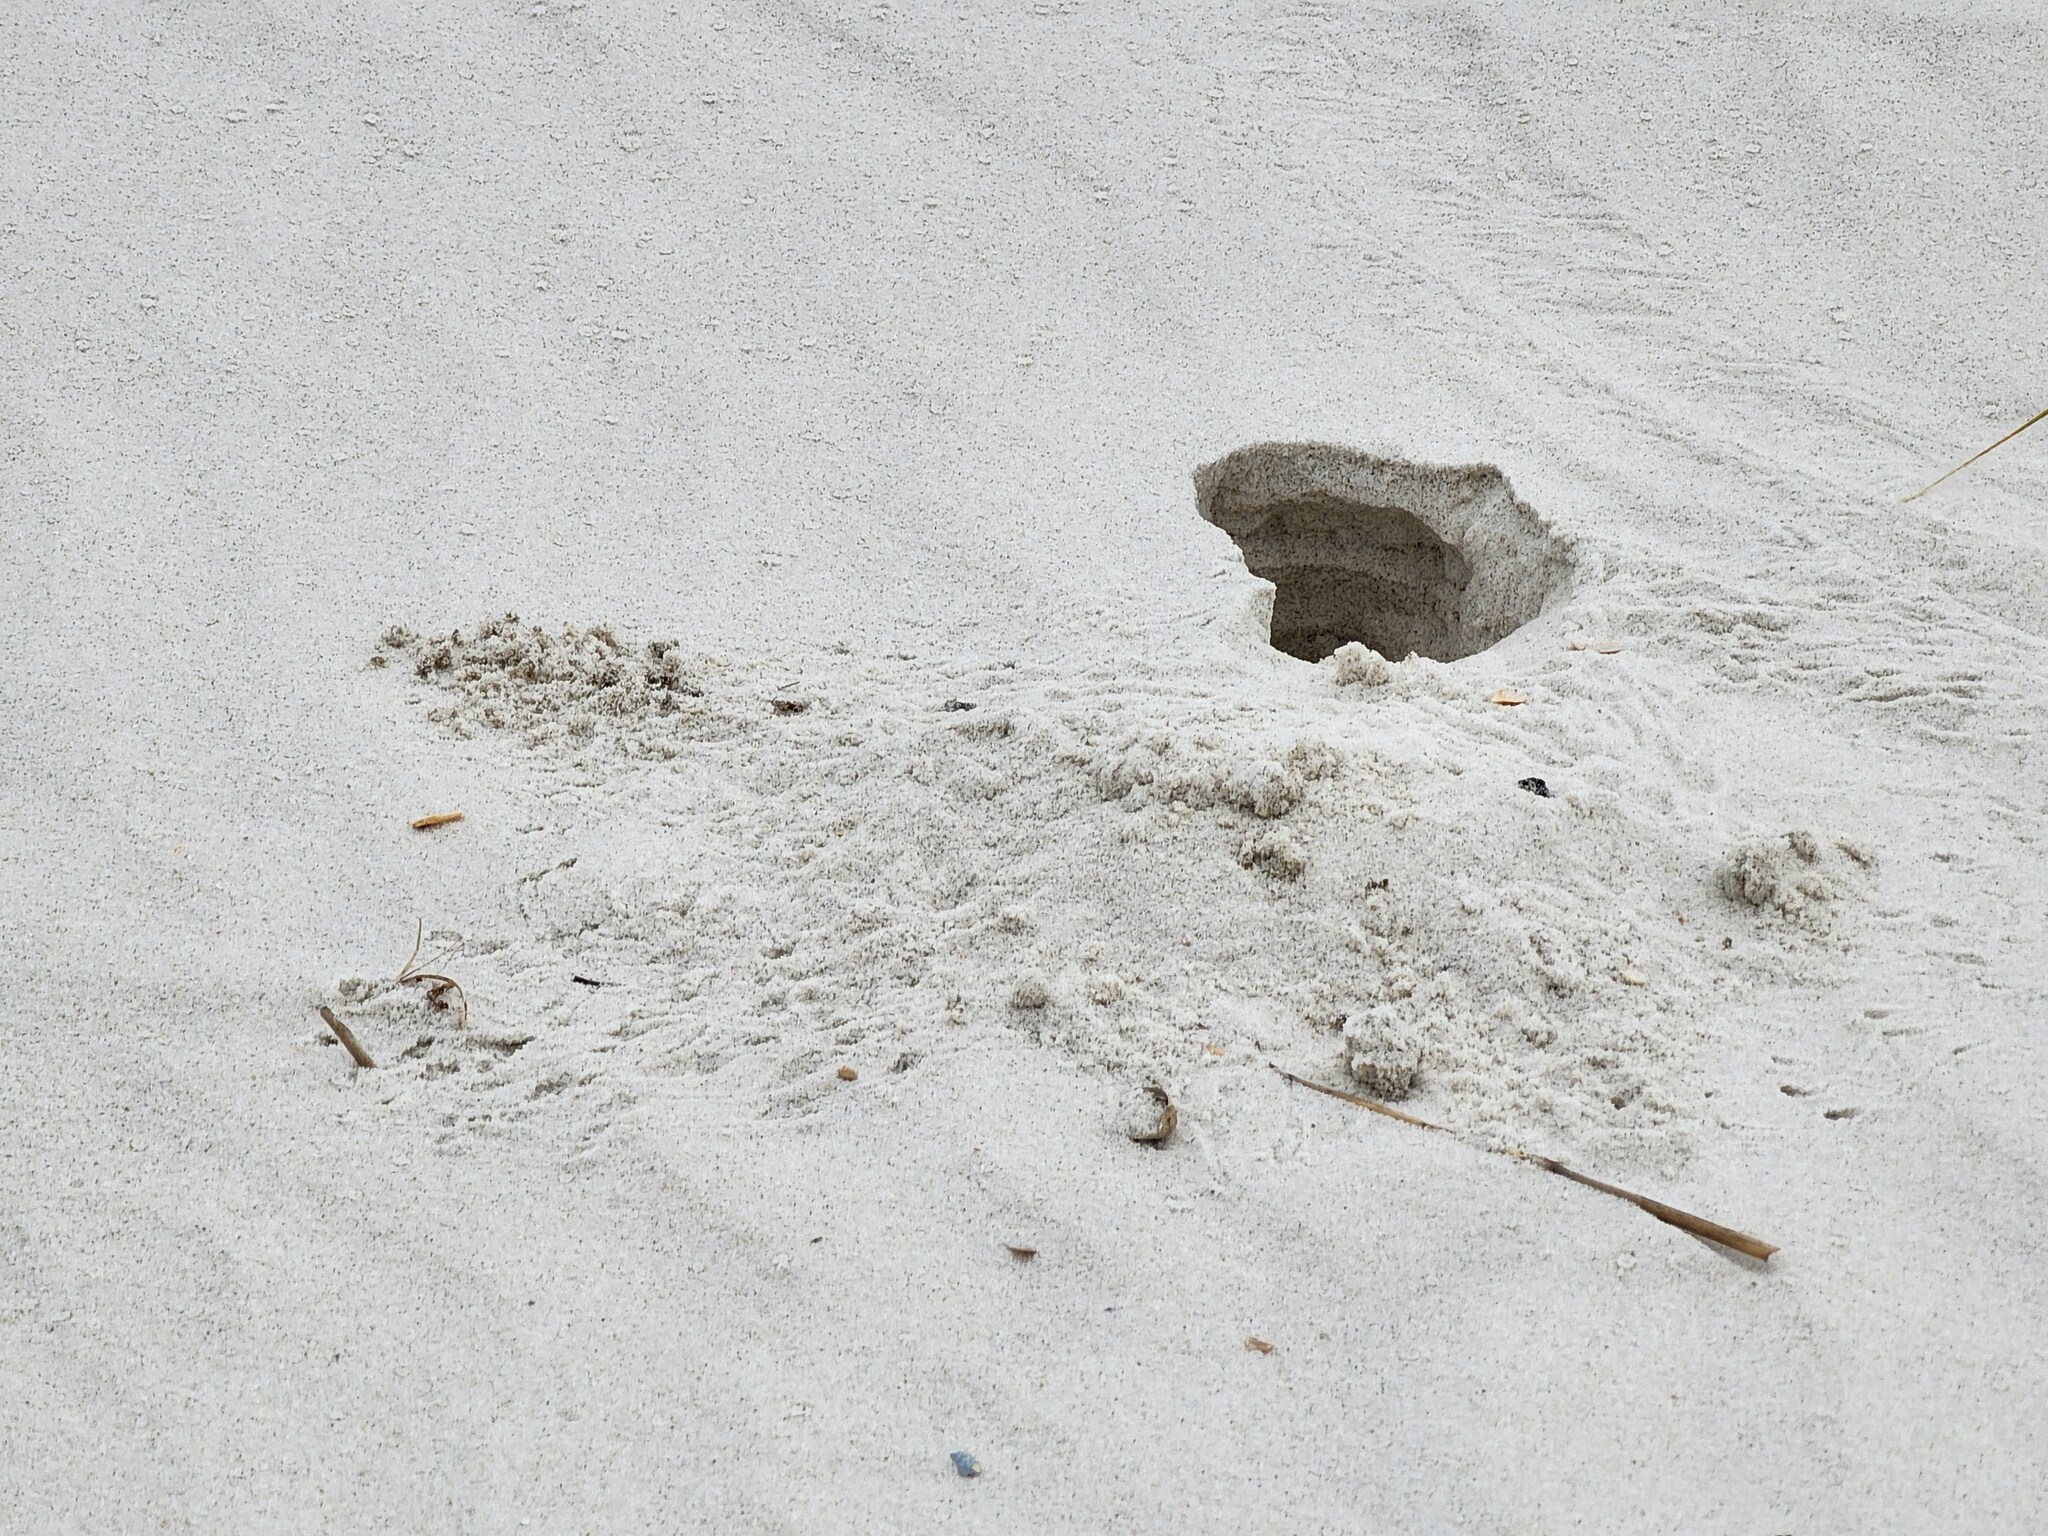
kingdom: Animalia
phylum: Arthropoda
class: Malacostraca
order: Decapoda
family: Ocypodidae
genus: Ocypode
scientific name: Ocypode quadrata
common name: Ghost crab
